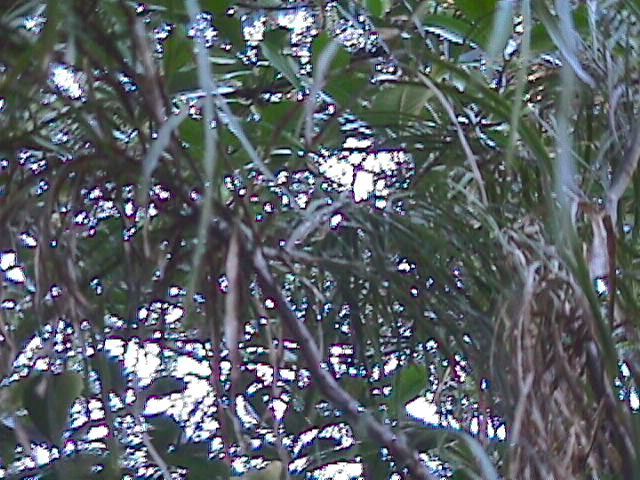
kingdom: Plantae
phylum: Tracheophyta
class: Magnoliopsida
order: Fabales
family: Fabaceae
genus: Carmichaelia
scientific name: Carmichaelia australis
